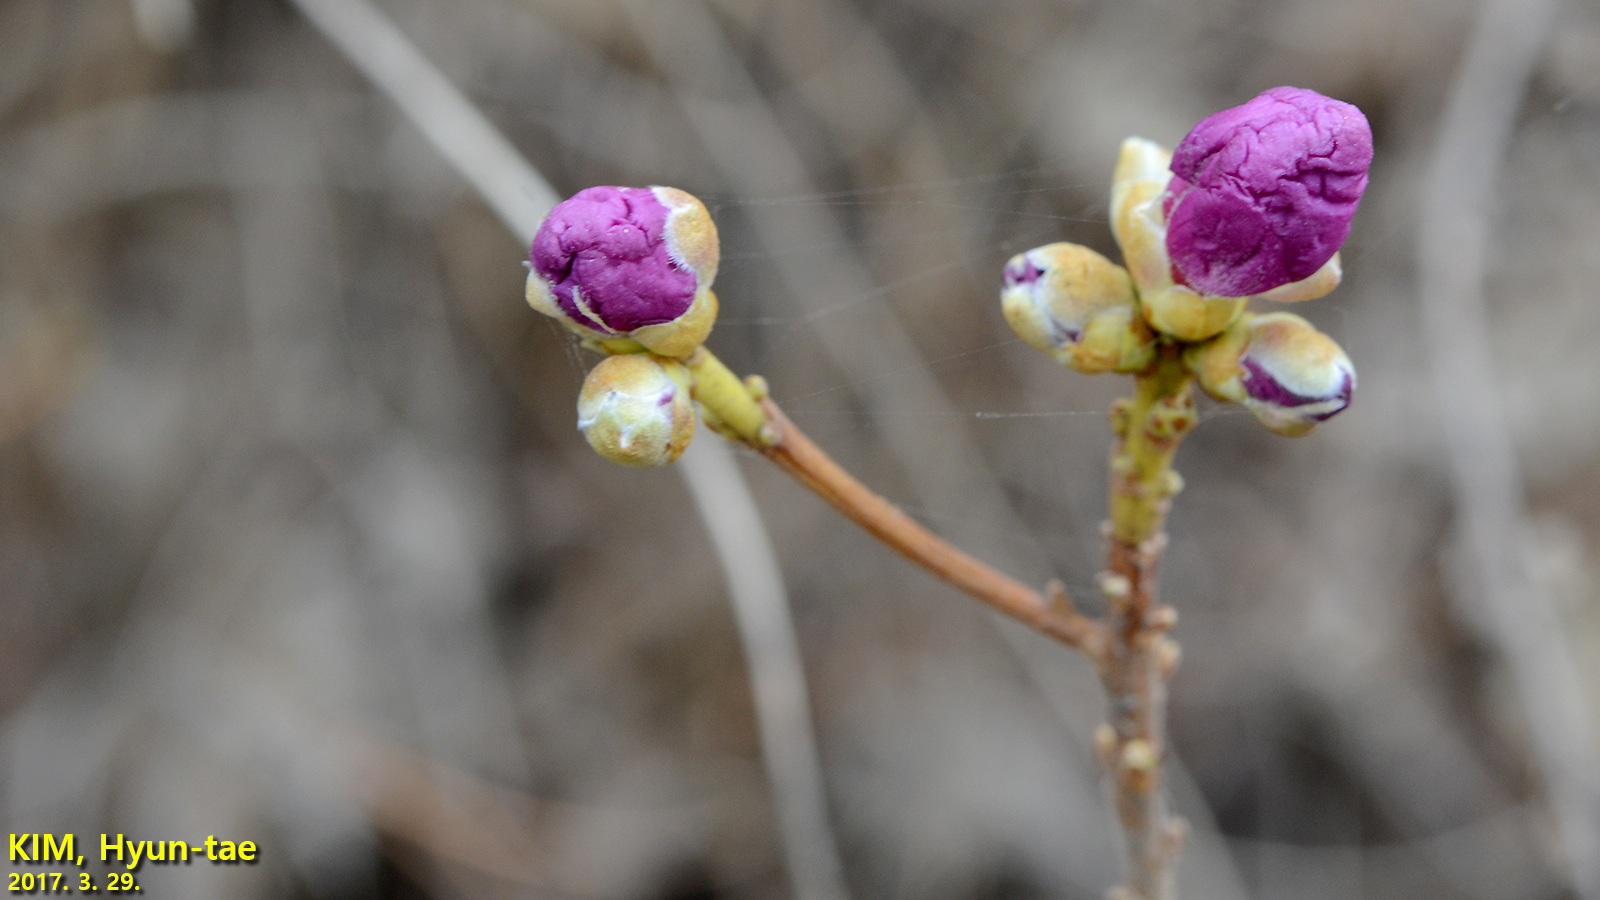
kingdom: Plantae
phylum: Tracheophyta
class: Magnoliopsida
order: Ericales
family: Ericaceae
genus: Rhododendron
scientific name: Rhododendron mucronulatum
